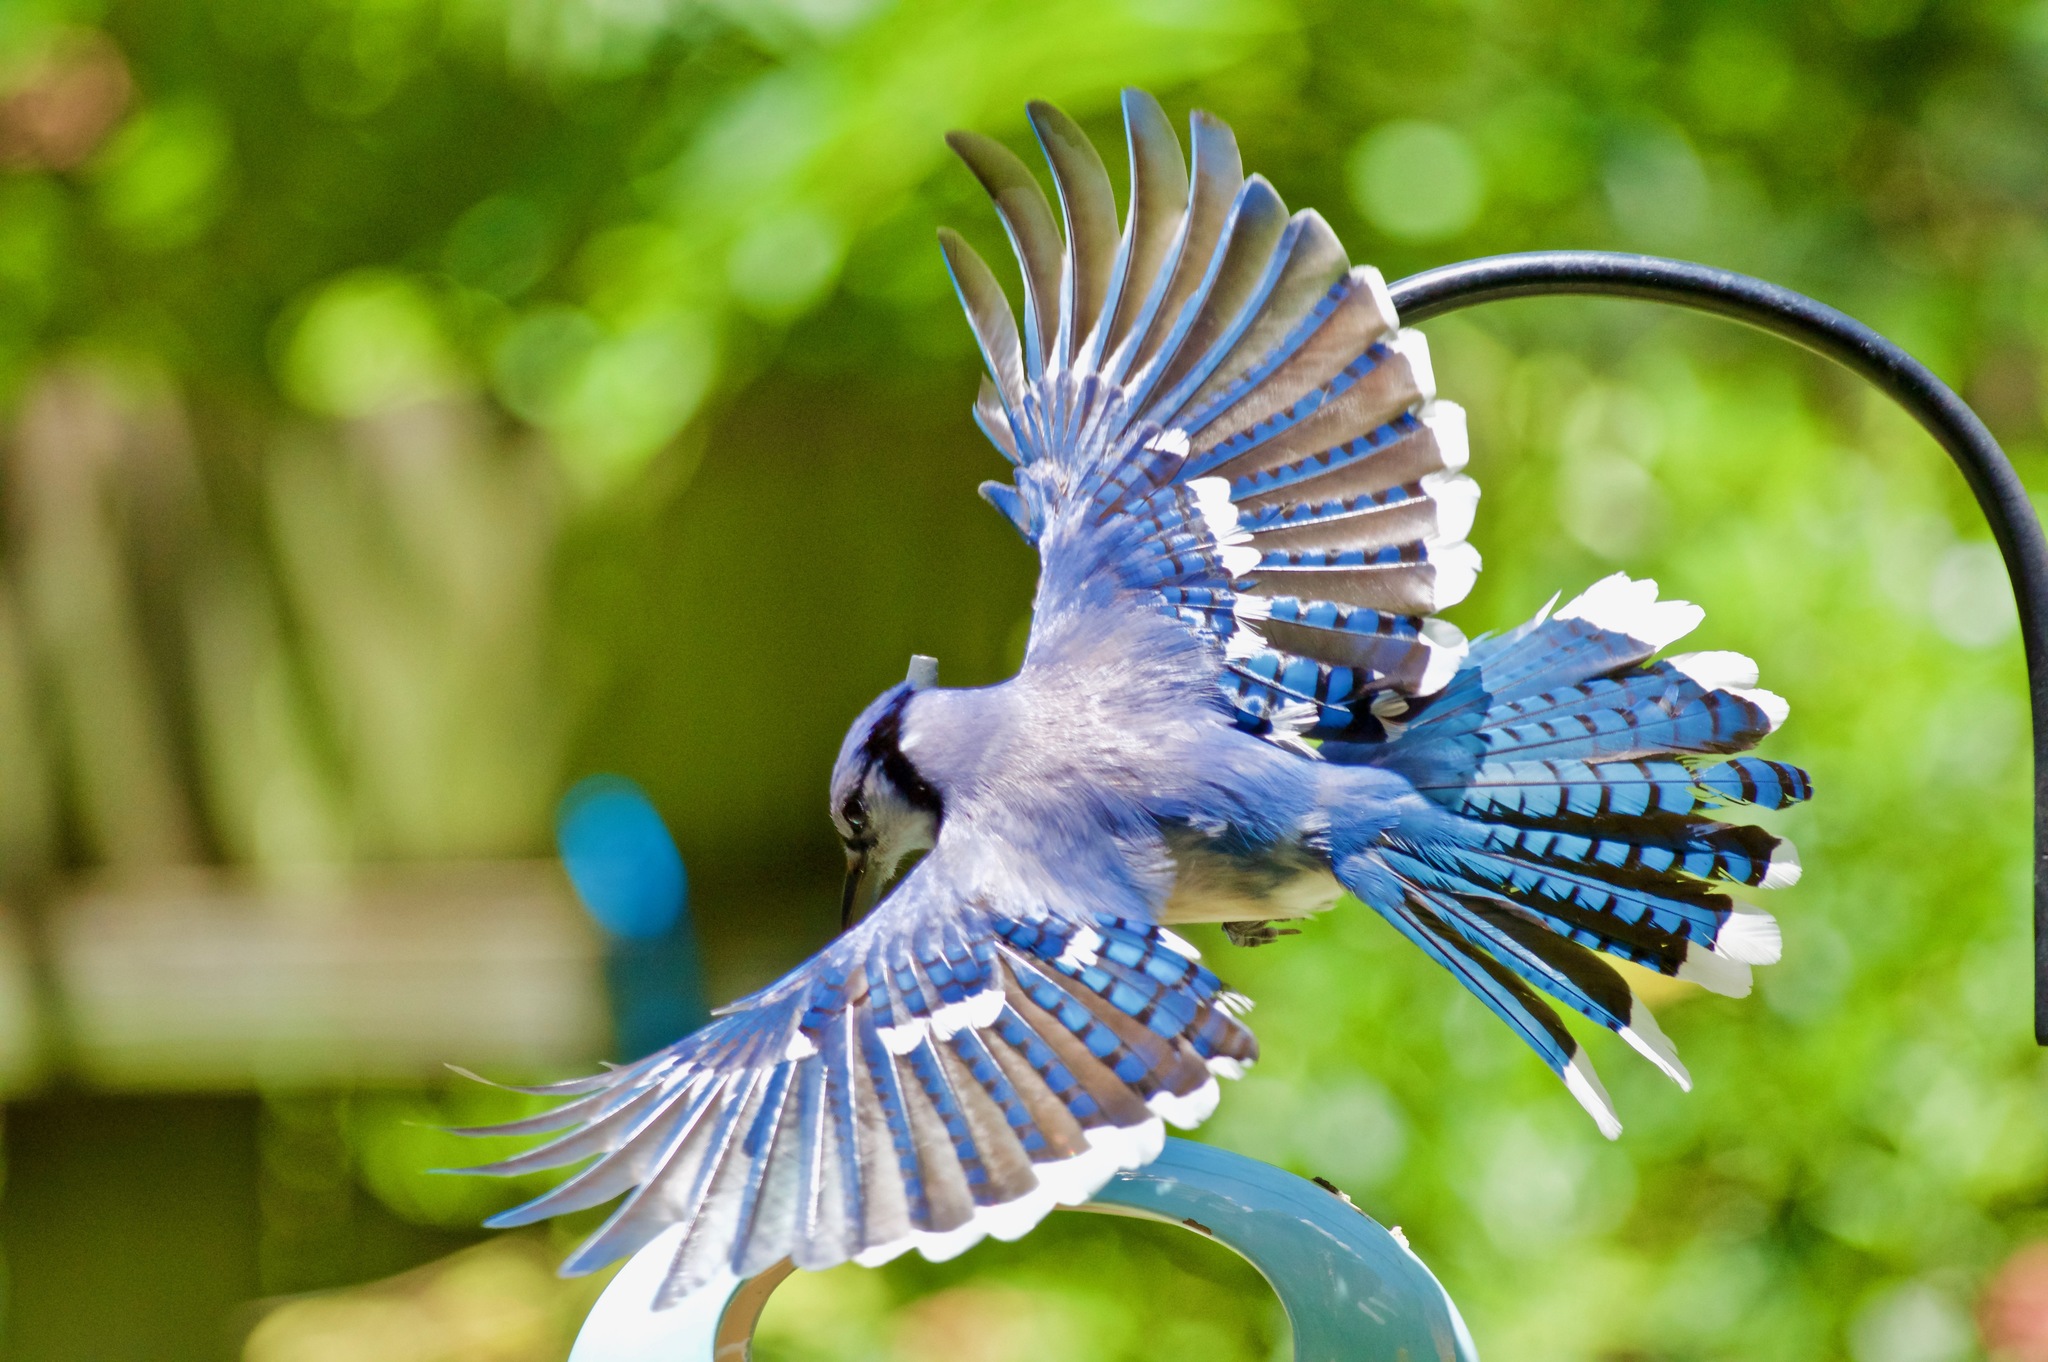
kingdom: Animalia
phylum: Chordata
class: Aves
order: Passeriformes
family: Corvidae
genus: Cyanocitta
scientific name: Cyanocitta cristata
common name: Blue jay
